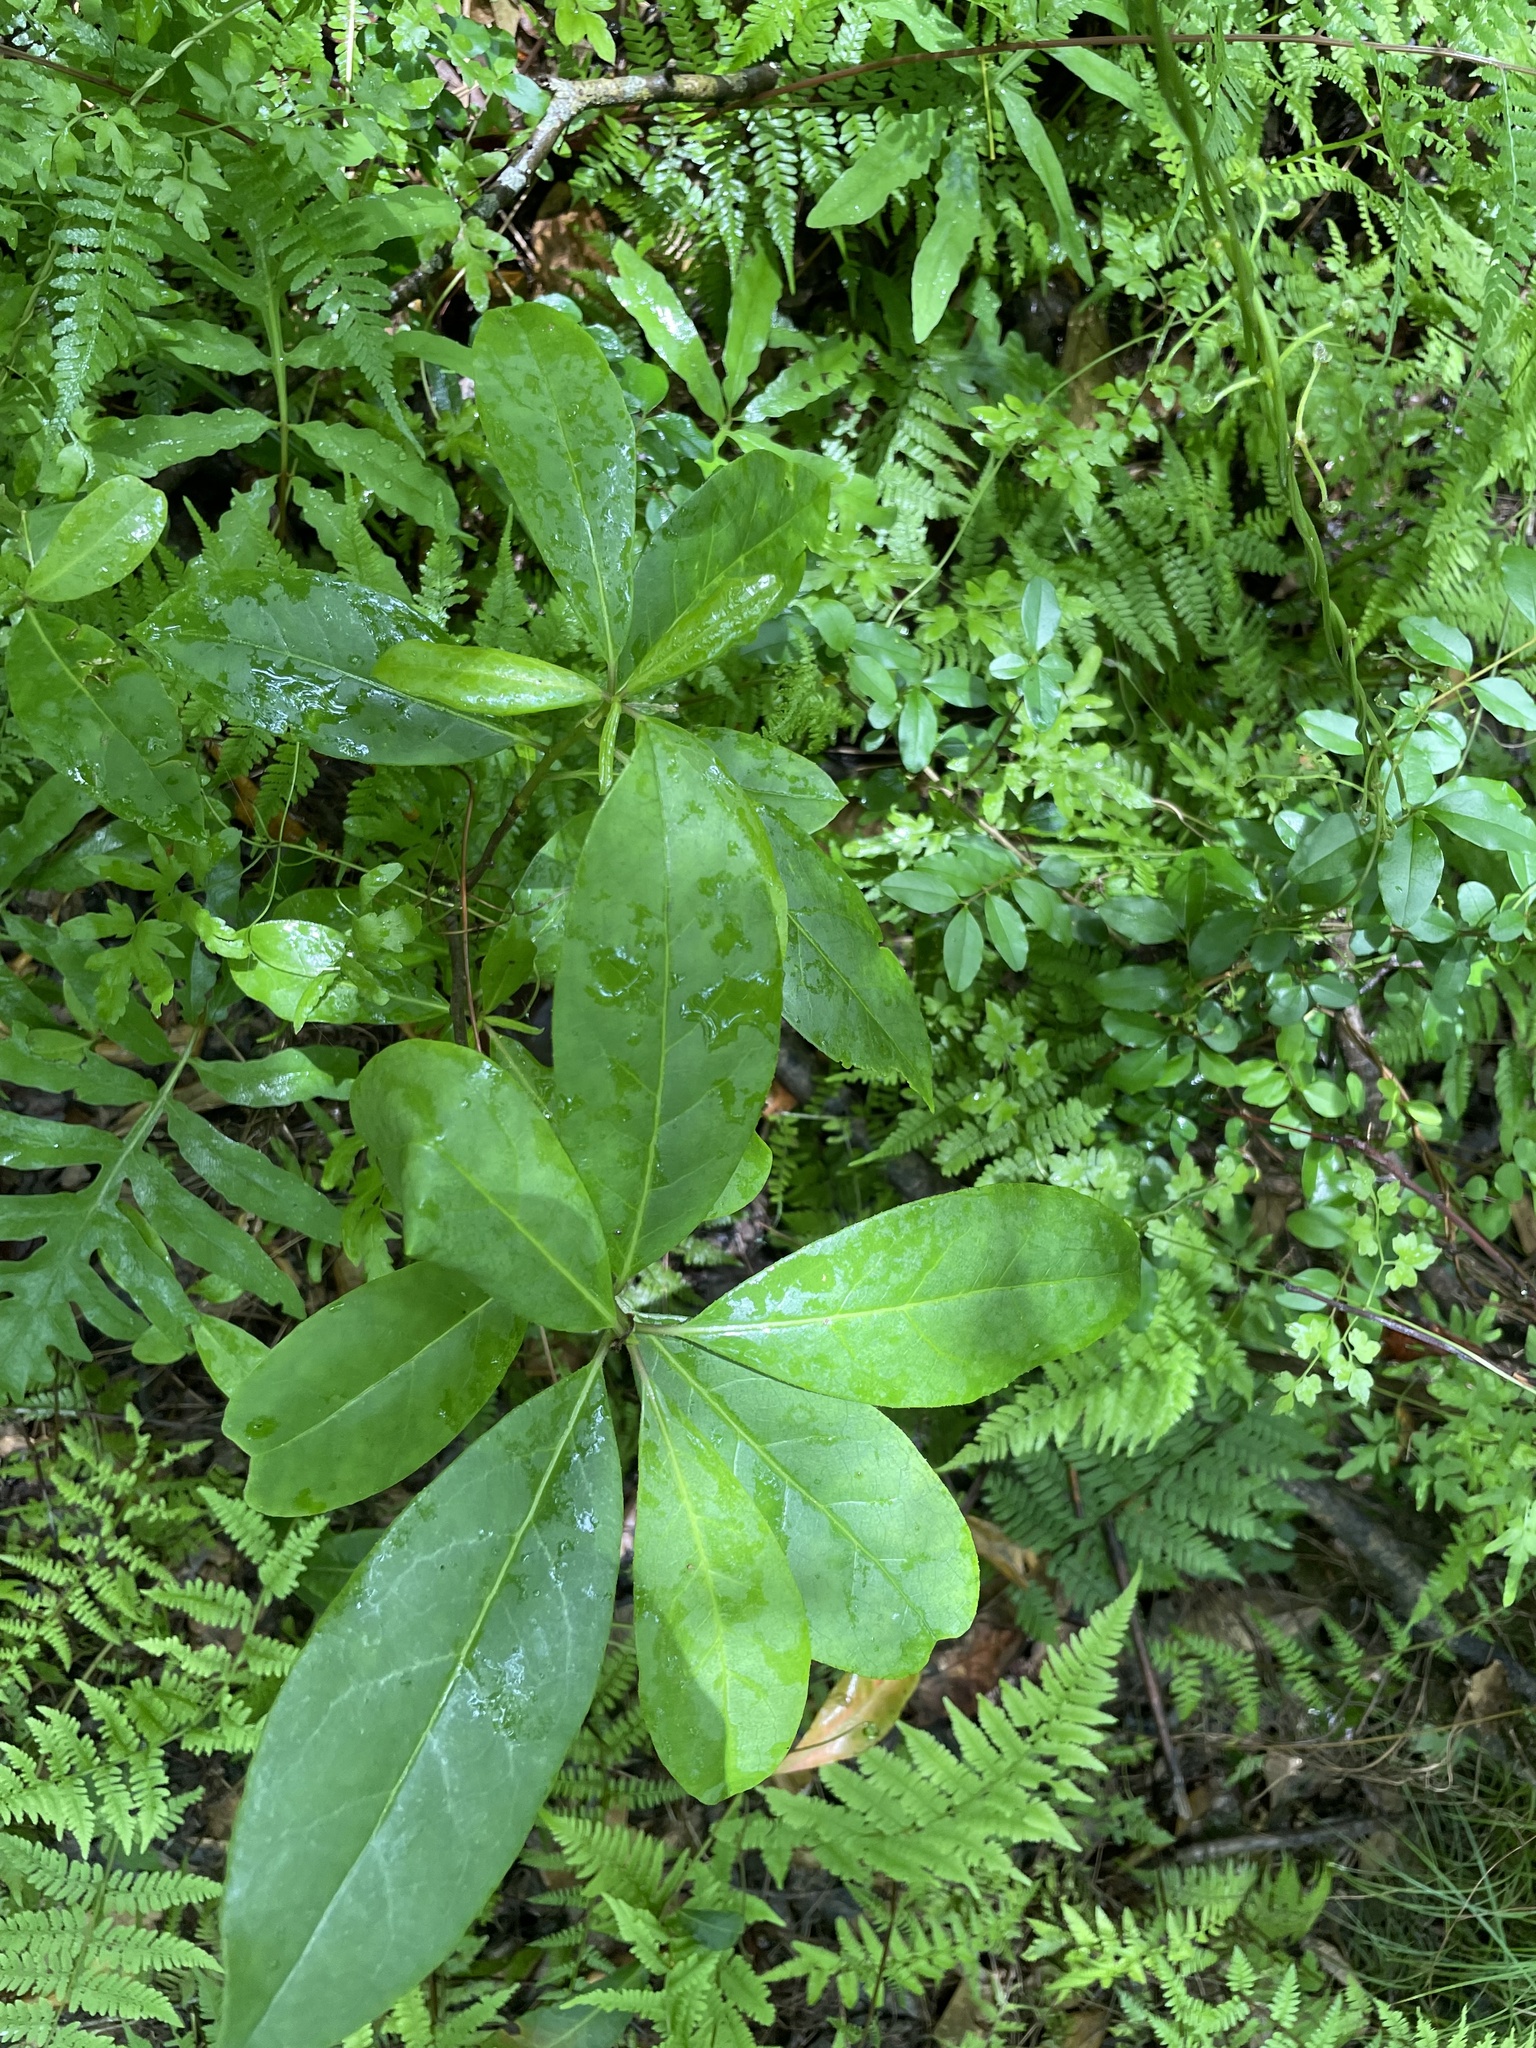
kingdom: Plantae
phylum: Tracheophyta
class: Magnoliopsida
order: Cornales
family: Nyssaceae
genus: Nyssa
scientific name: Nyssa biflora
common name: Swamp blackgum
